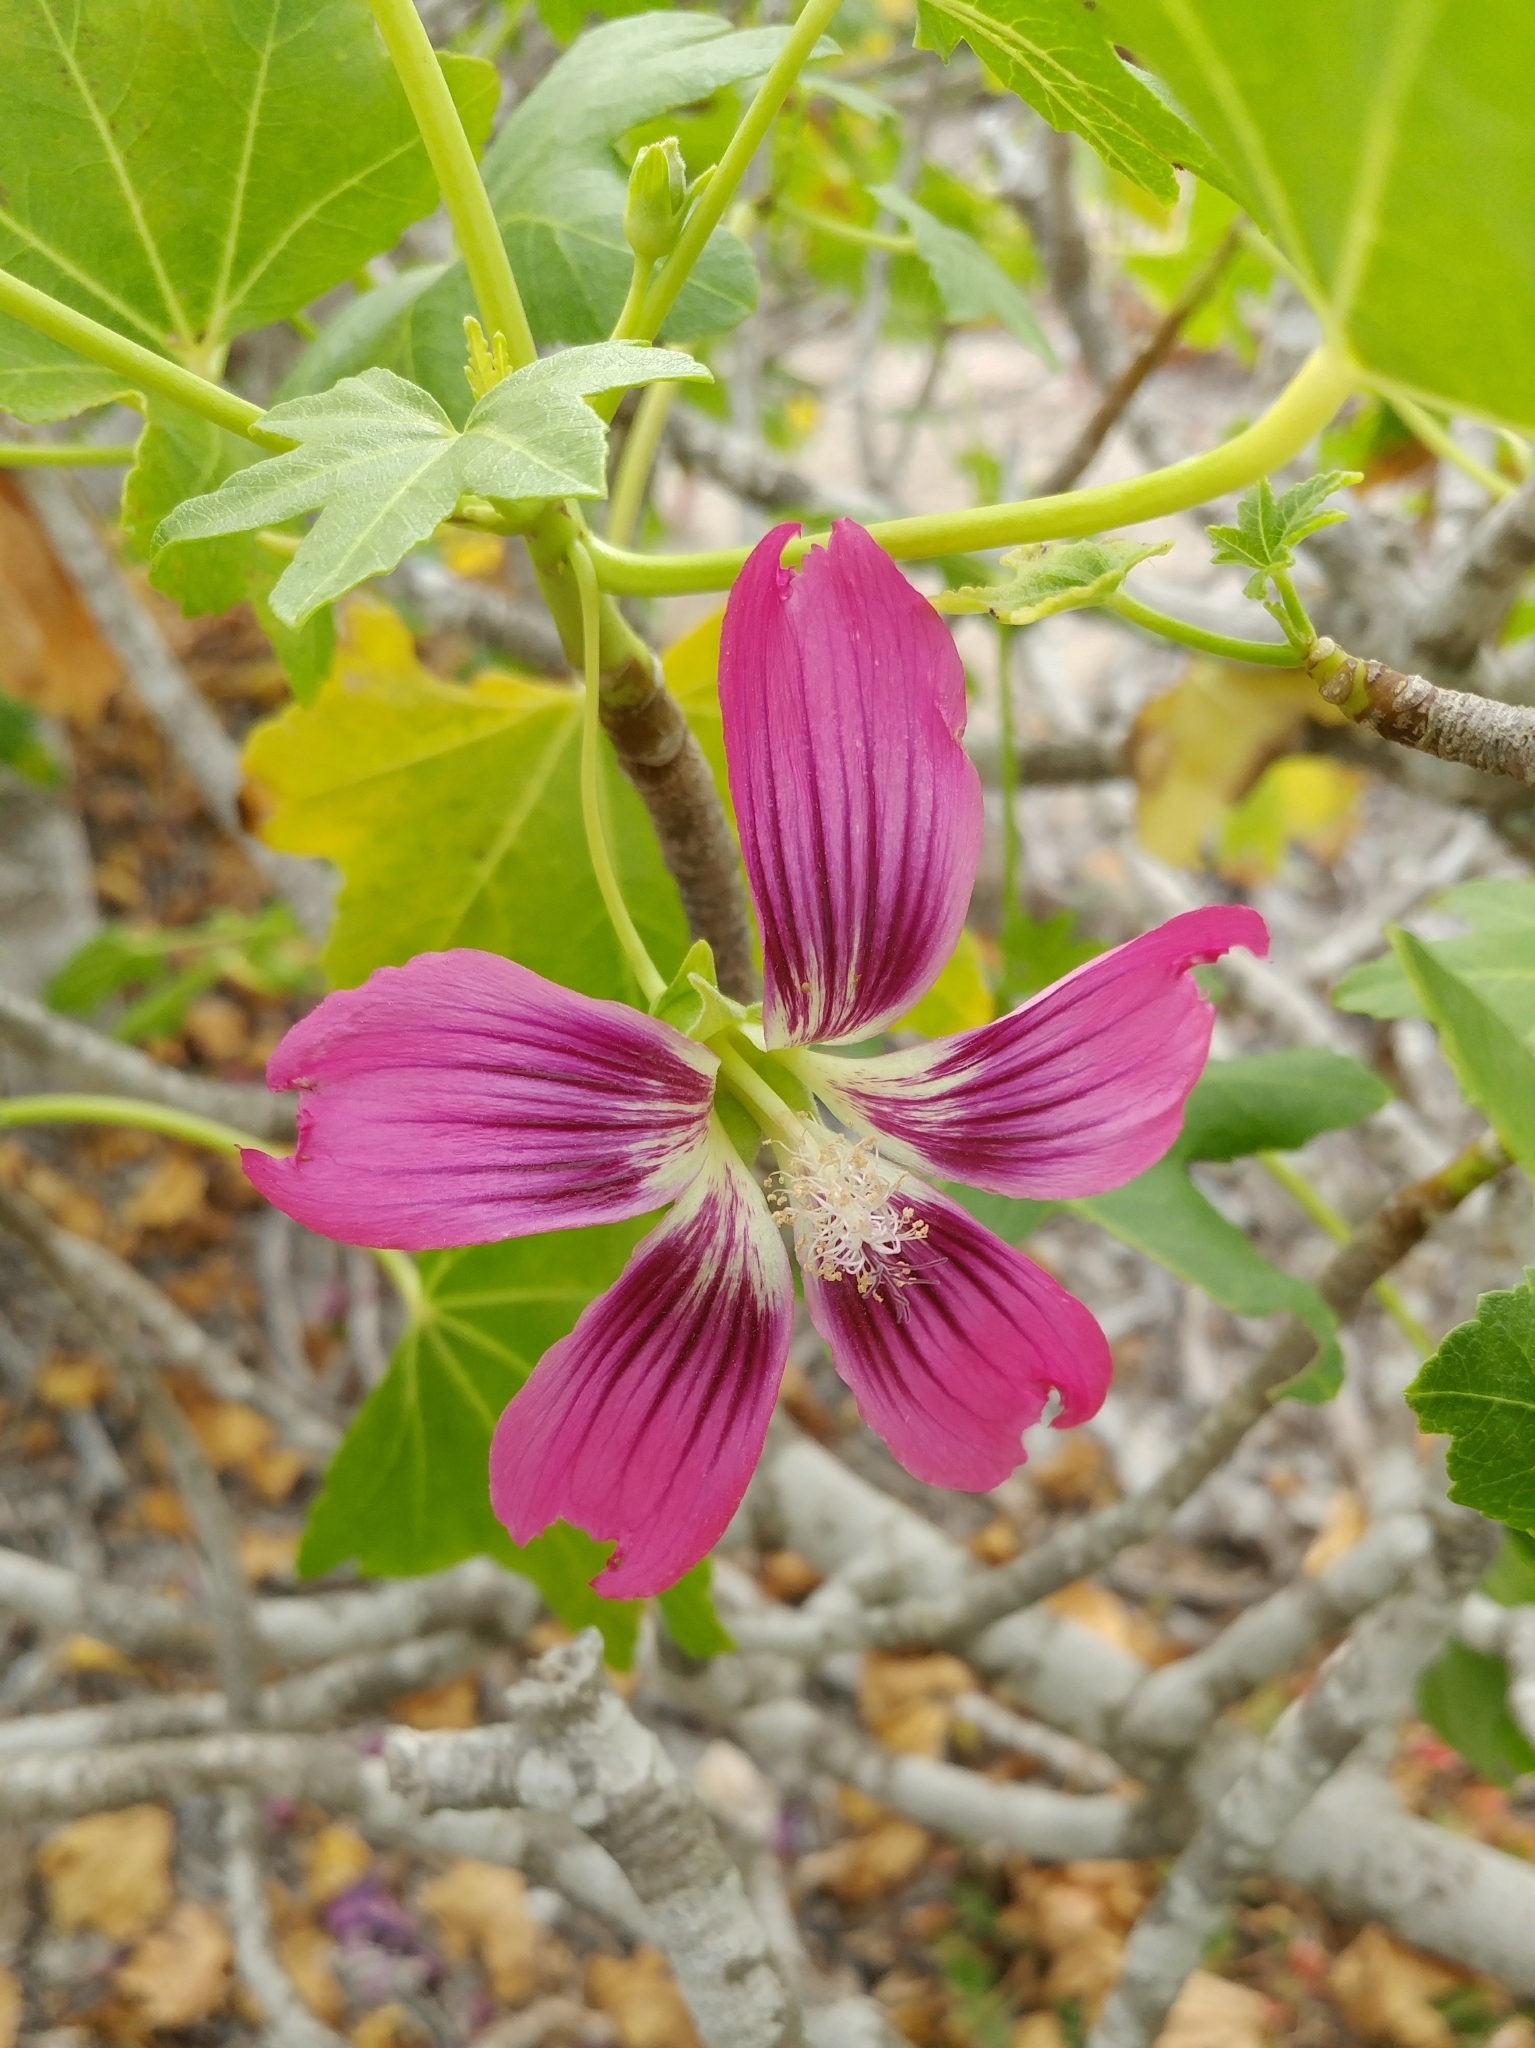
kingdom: Plantae
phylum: Tracheophyta
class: Magnoliopsida
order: Malvales
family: Malvaceae
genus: Malva
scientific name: Malva assurgentiflora
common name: Island mallow
